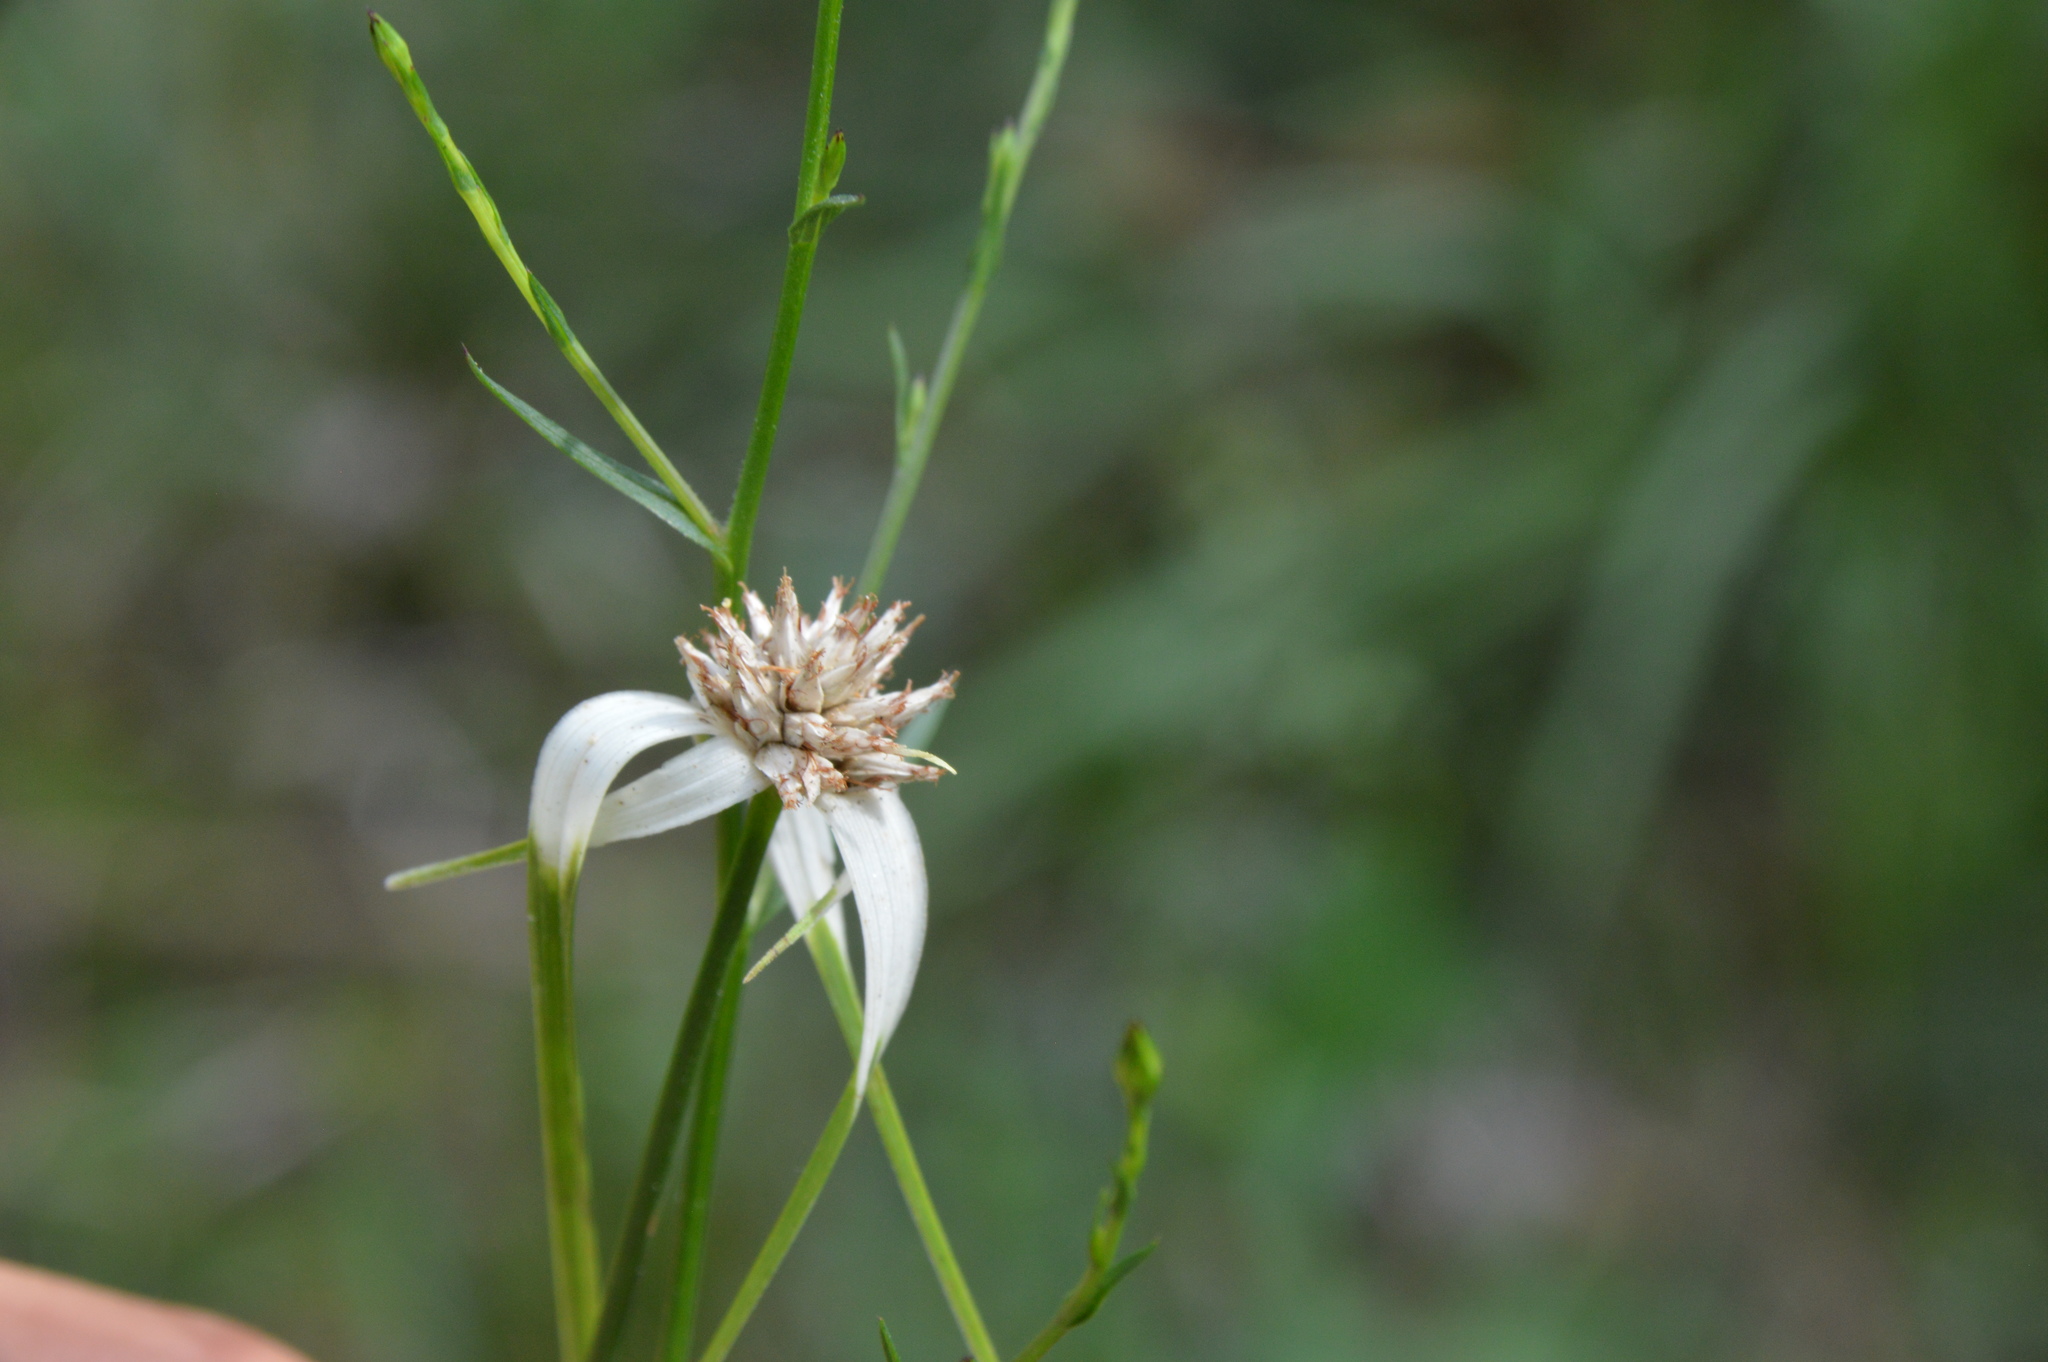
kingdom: Plantae
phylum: Tracheophyta
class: Liliopsida
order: Poales
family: Cyperaceae
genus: Rhynchospora
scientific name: Rhynchospora colorata
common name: Star sedge
